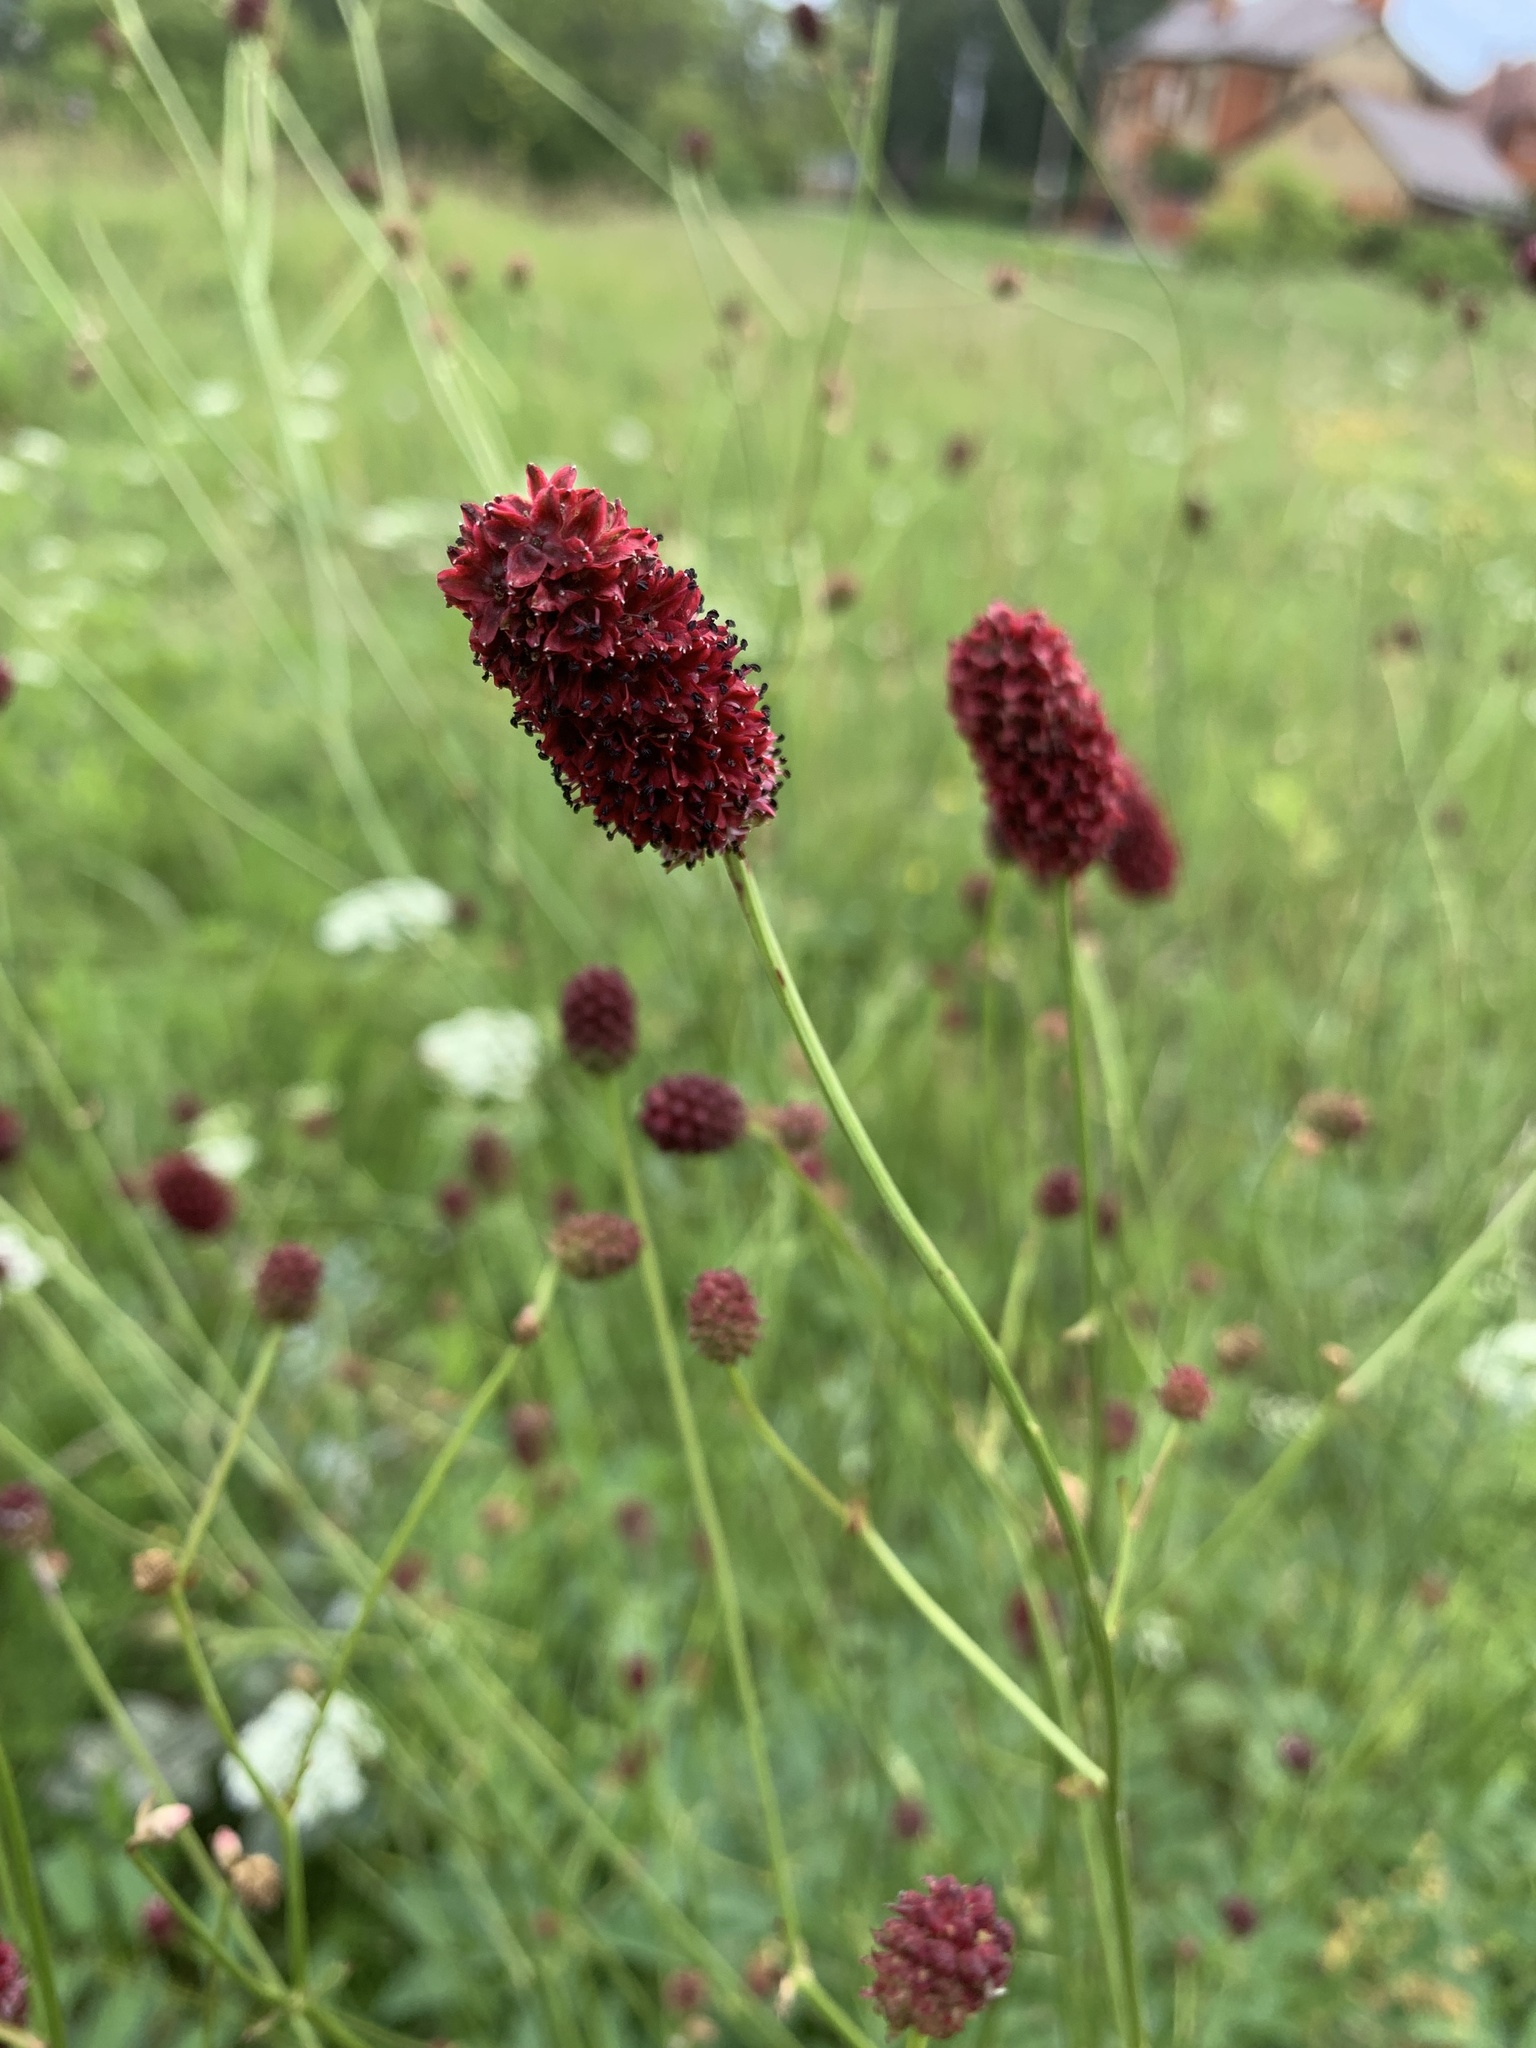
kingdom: Plantae
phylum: Tracheophyta
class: Magnoliopsida
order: Rosales
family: Rosaceae
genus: Sanguisorba
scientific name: Sanguisorba officinalis
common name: Great burnet
